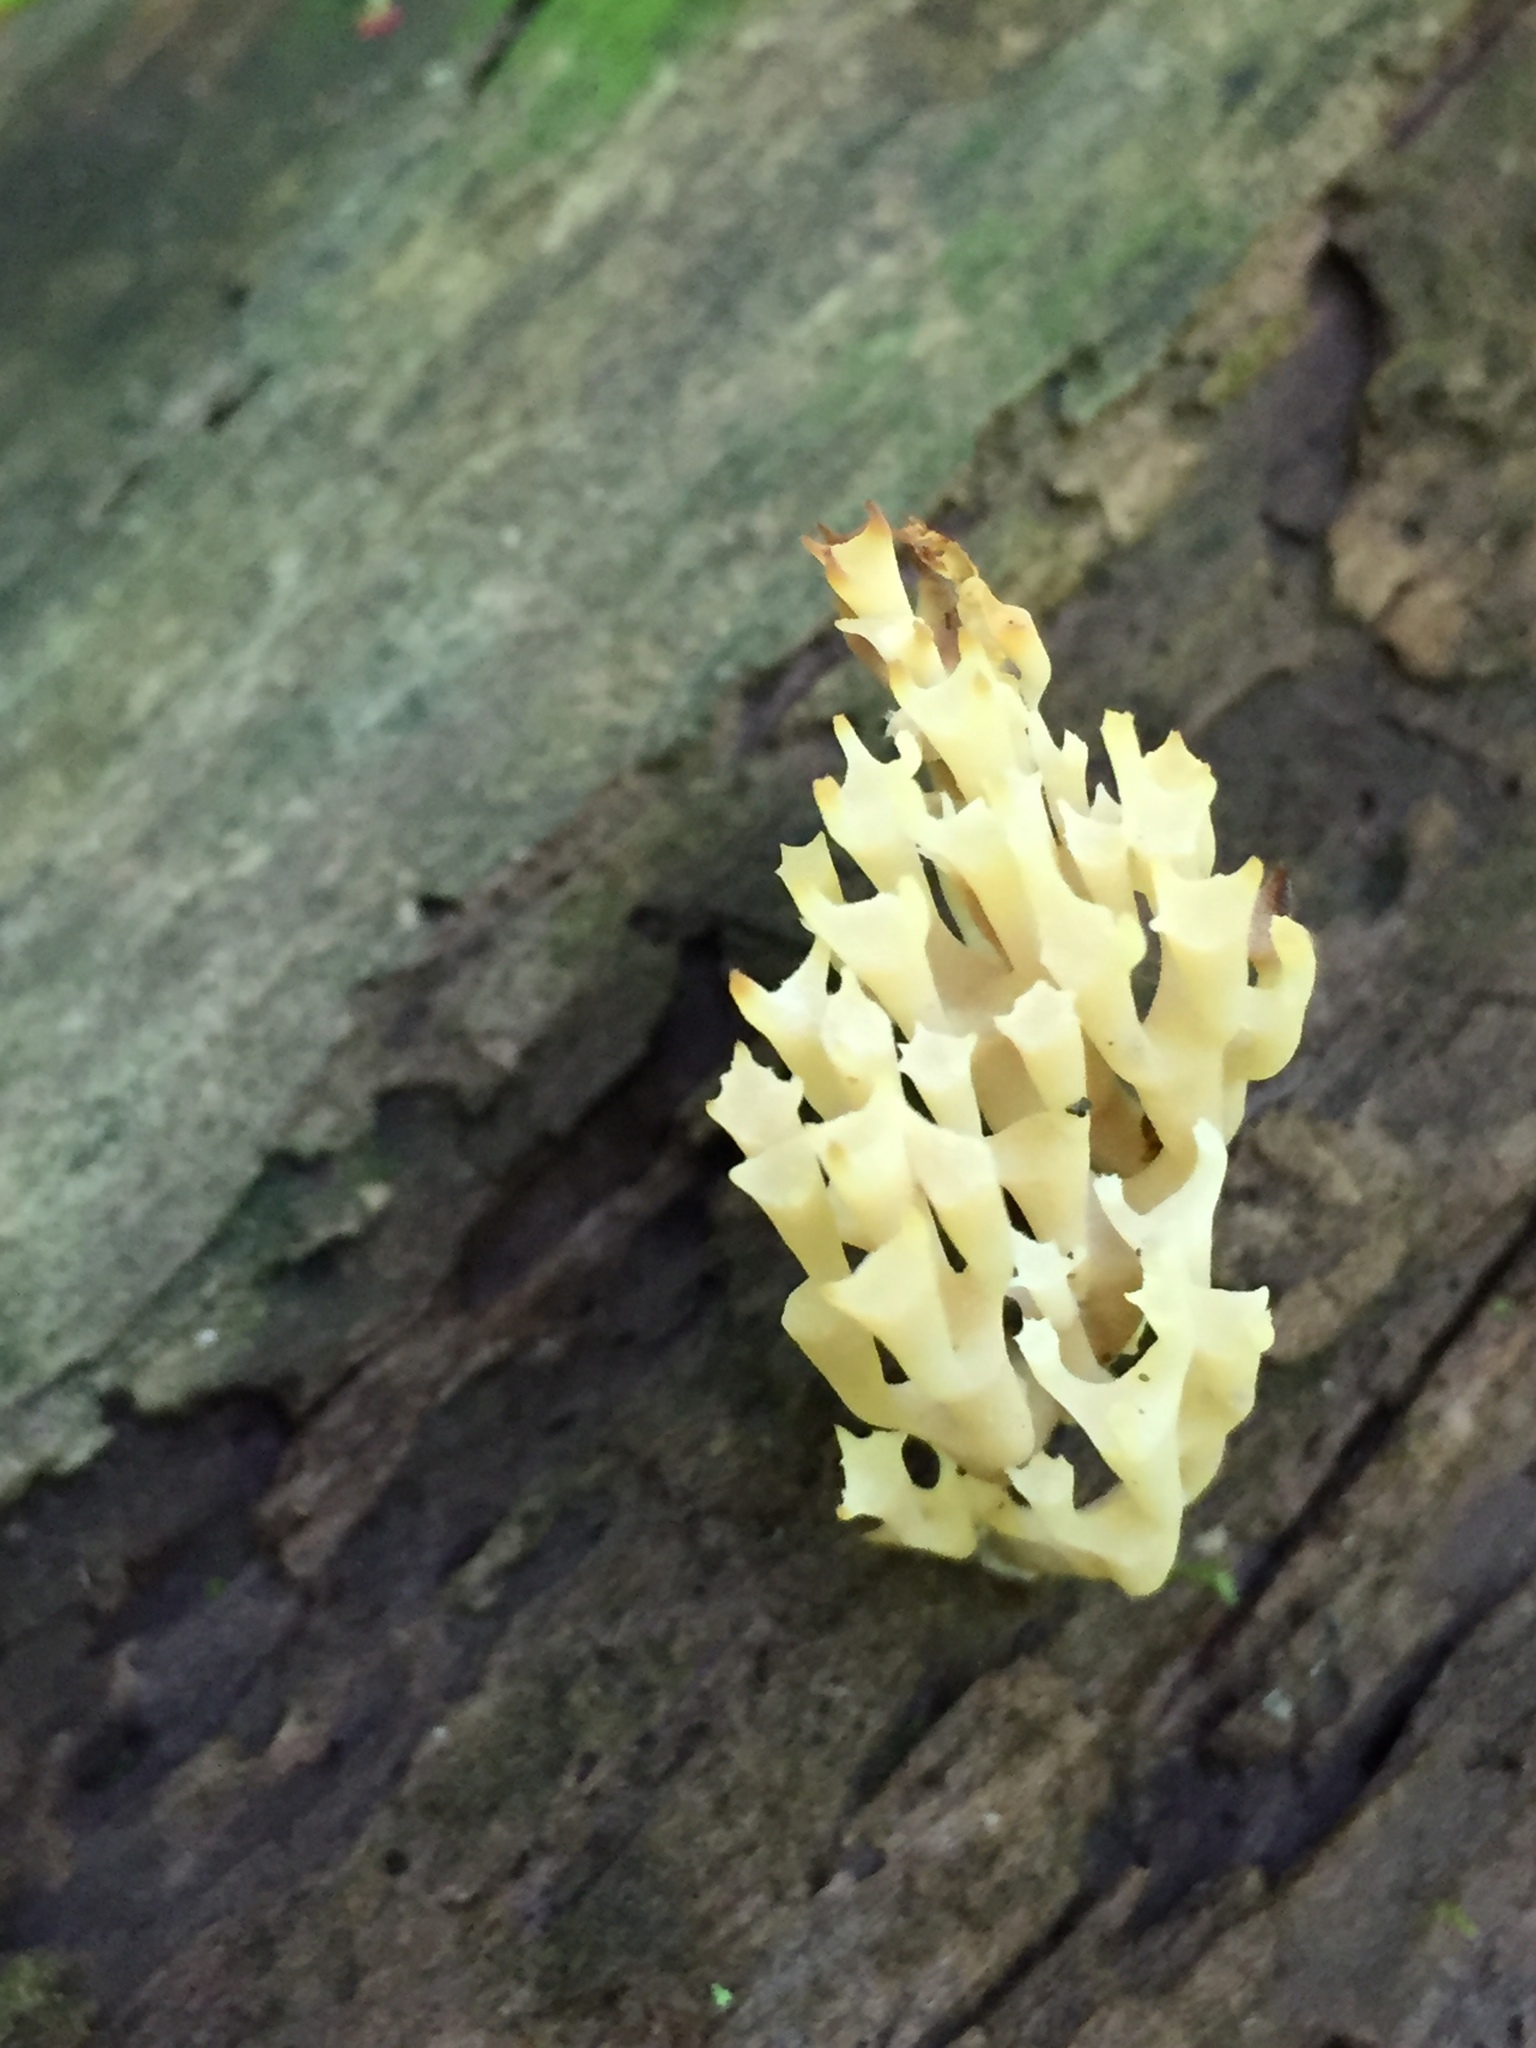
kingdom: Fungi
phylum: Basidiomycota
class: Agaricomycetes
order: Russulales
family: Auriscalpiaceae
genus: Artomyces
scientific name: Artomyces pyxidatus
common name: Crown-tipped coral fungus
